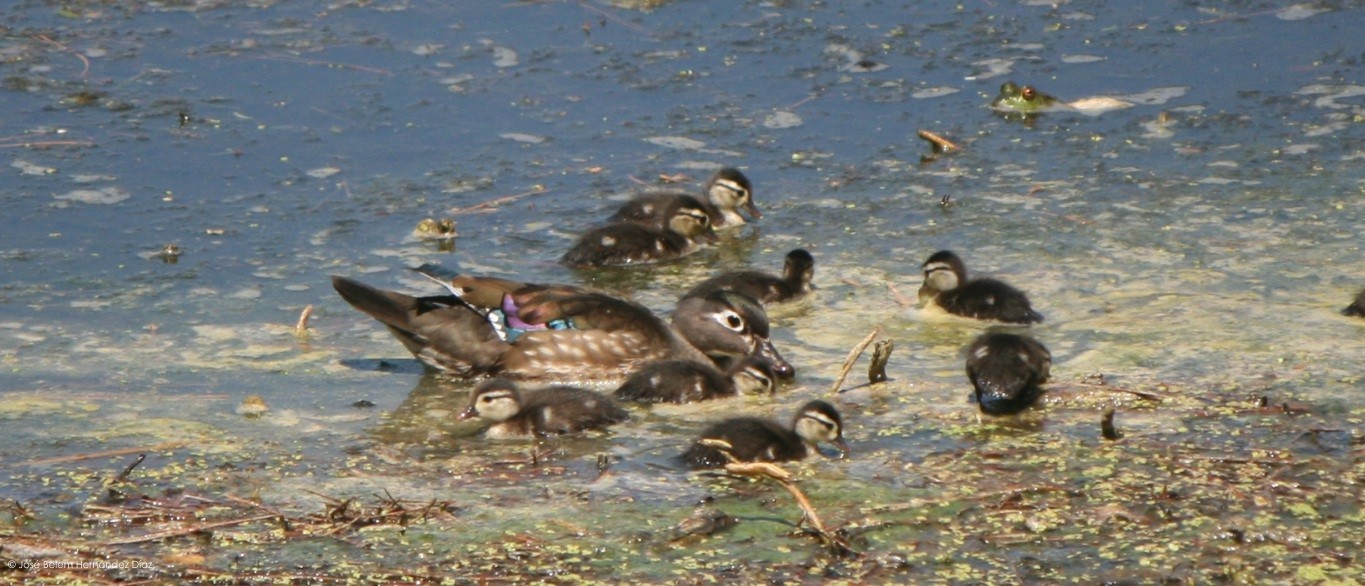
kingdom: Animalia
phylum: Chordata
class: Aves
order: Anseriformes
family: Anatidae
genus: Aix
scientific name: Aix sponsa
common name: Wood duck
